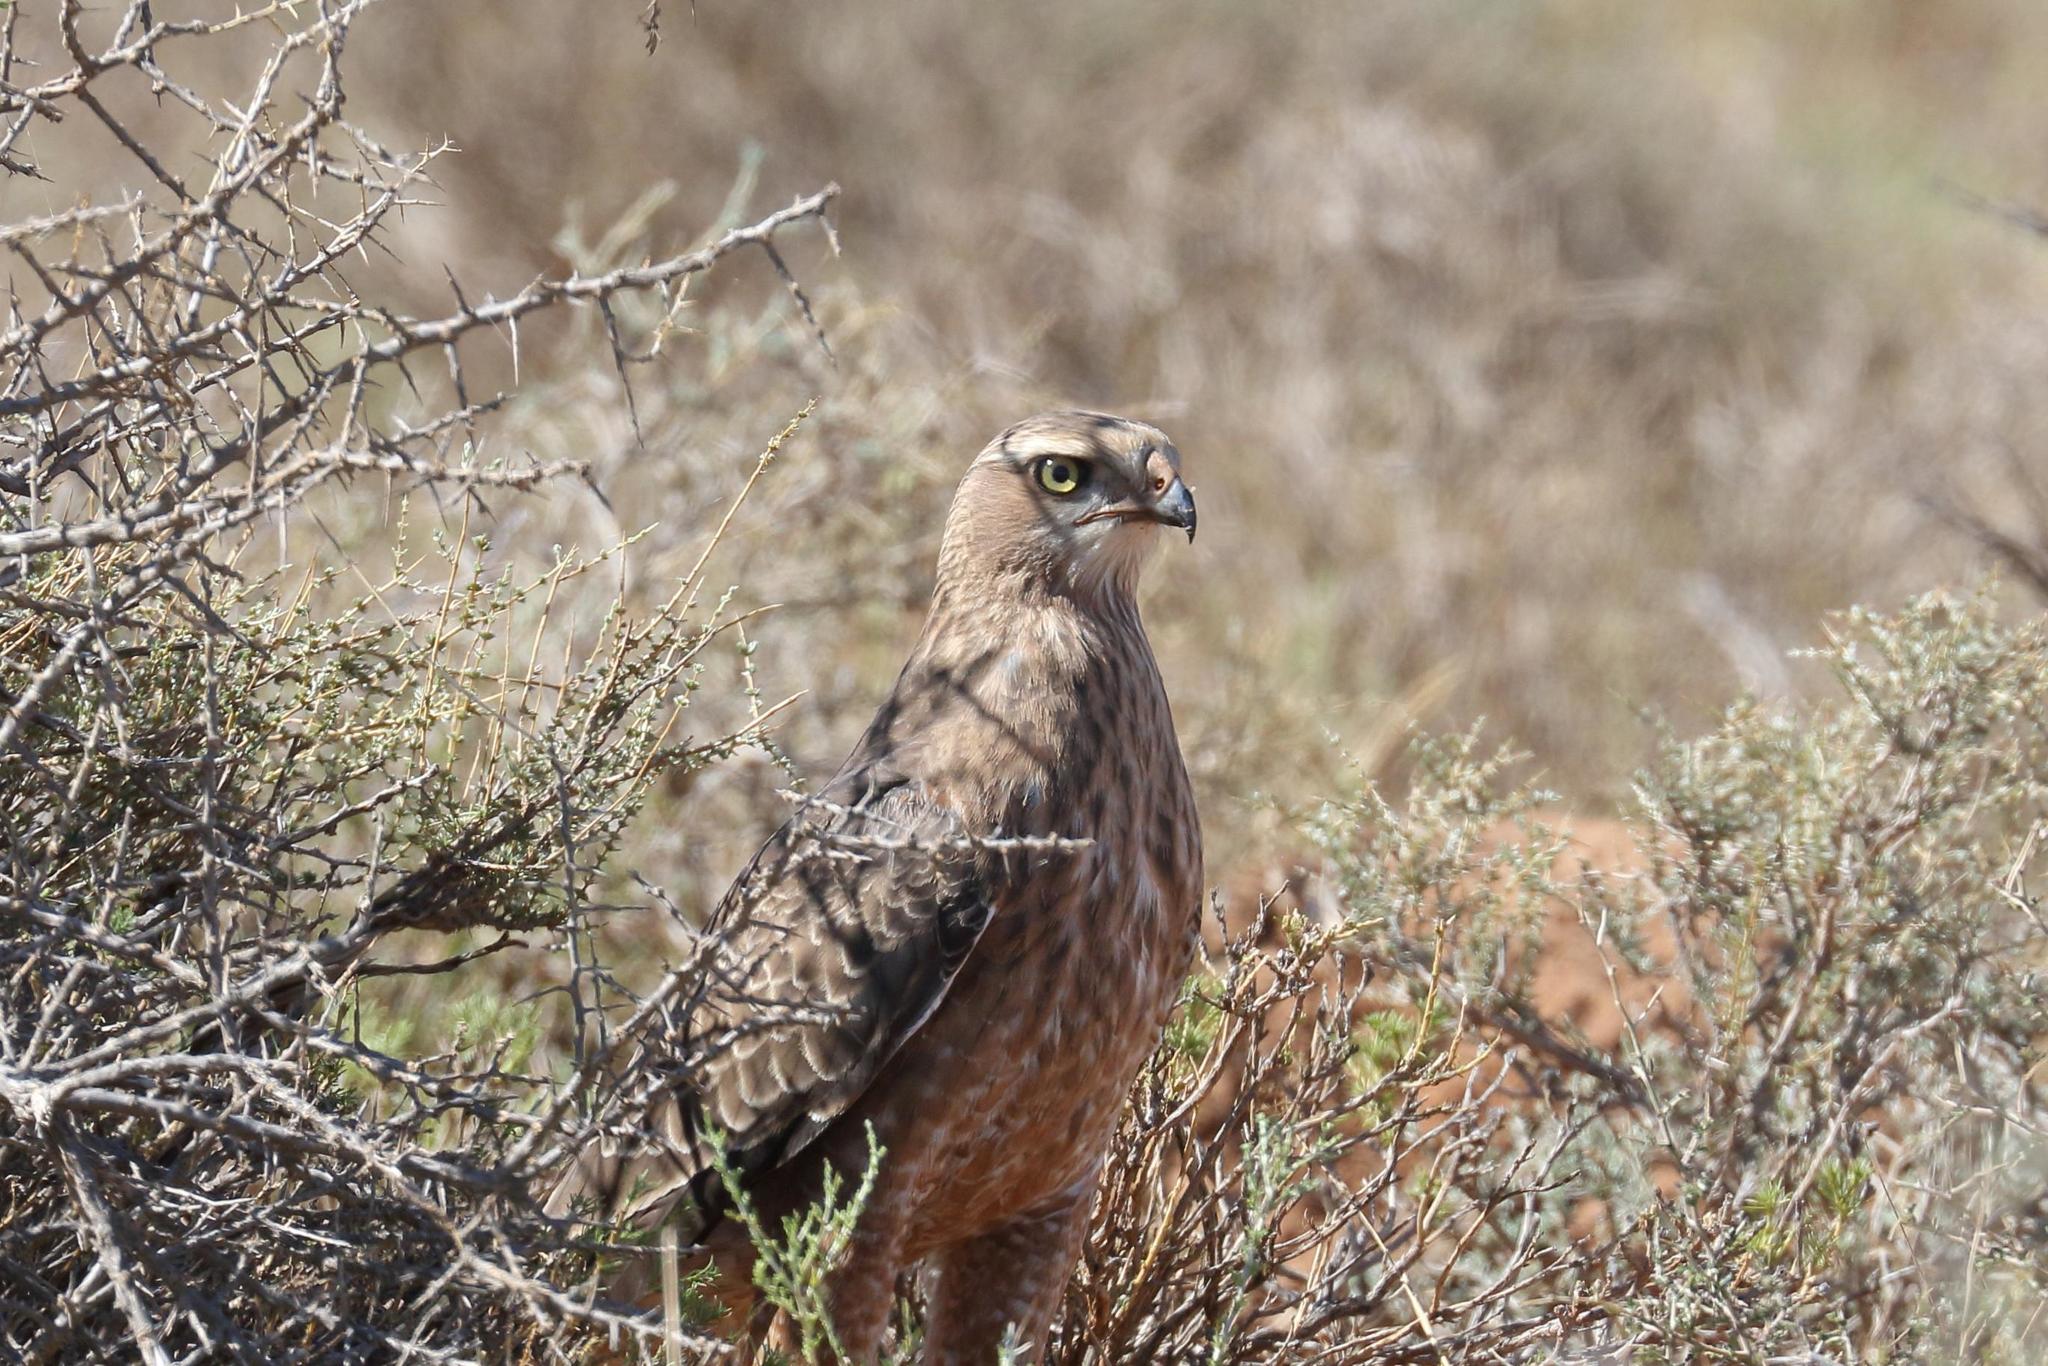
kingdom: Animalia
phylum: Chordata
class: Aves
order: Accipitriformes
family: Accipitridae
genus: Melierax
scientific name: Melierax canorus
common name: Pale chanting-goshawk
